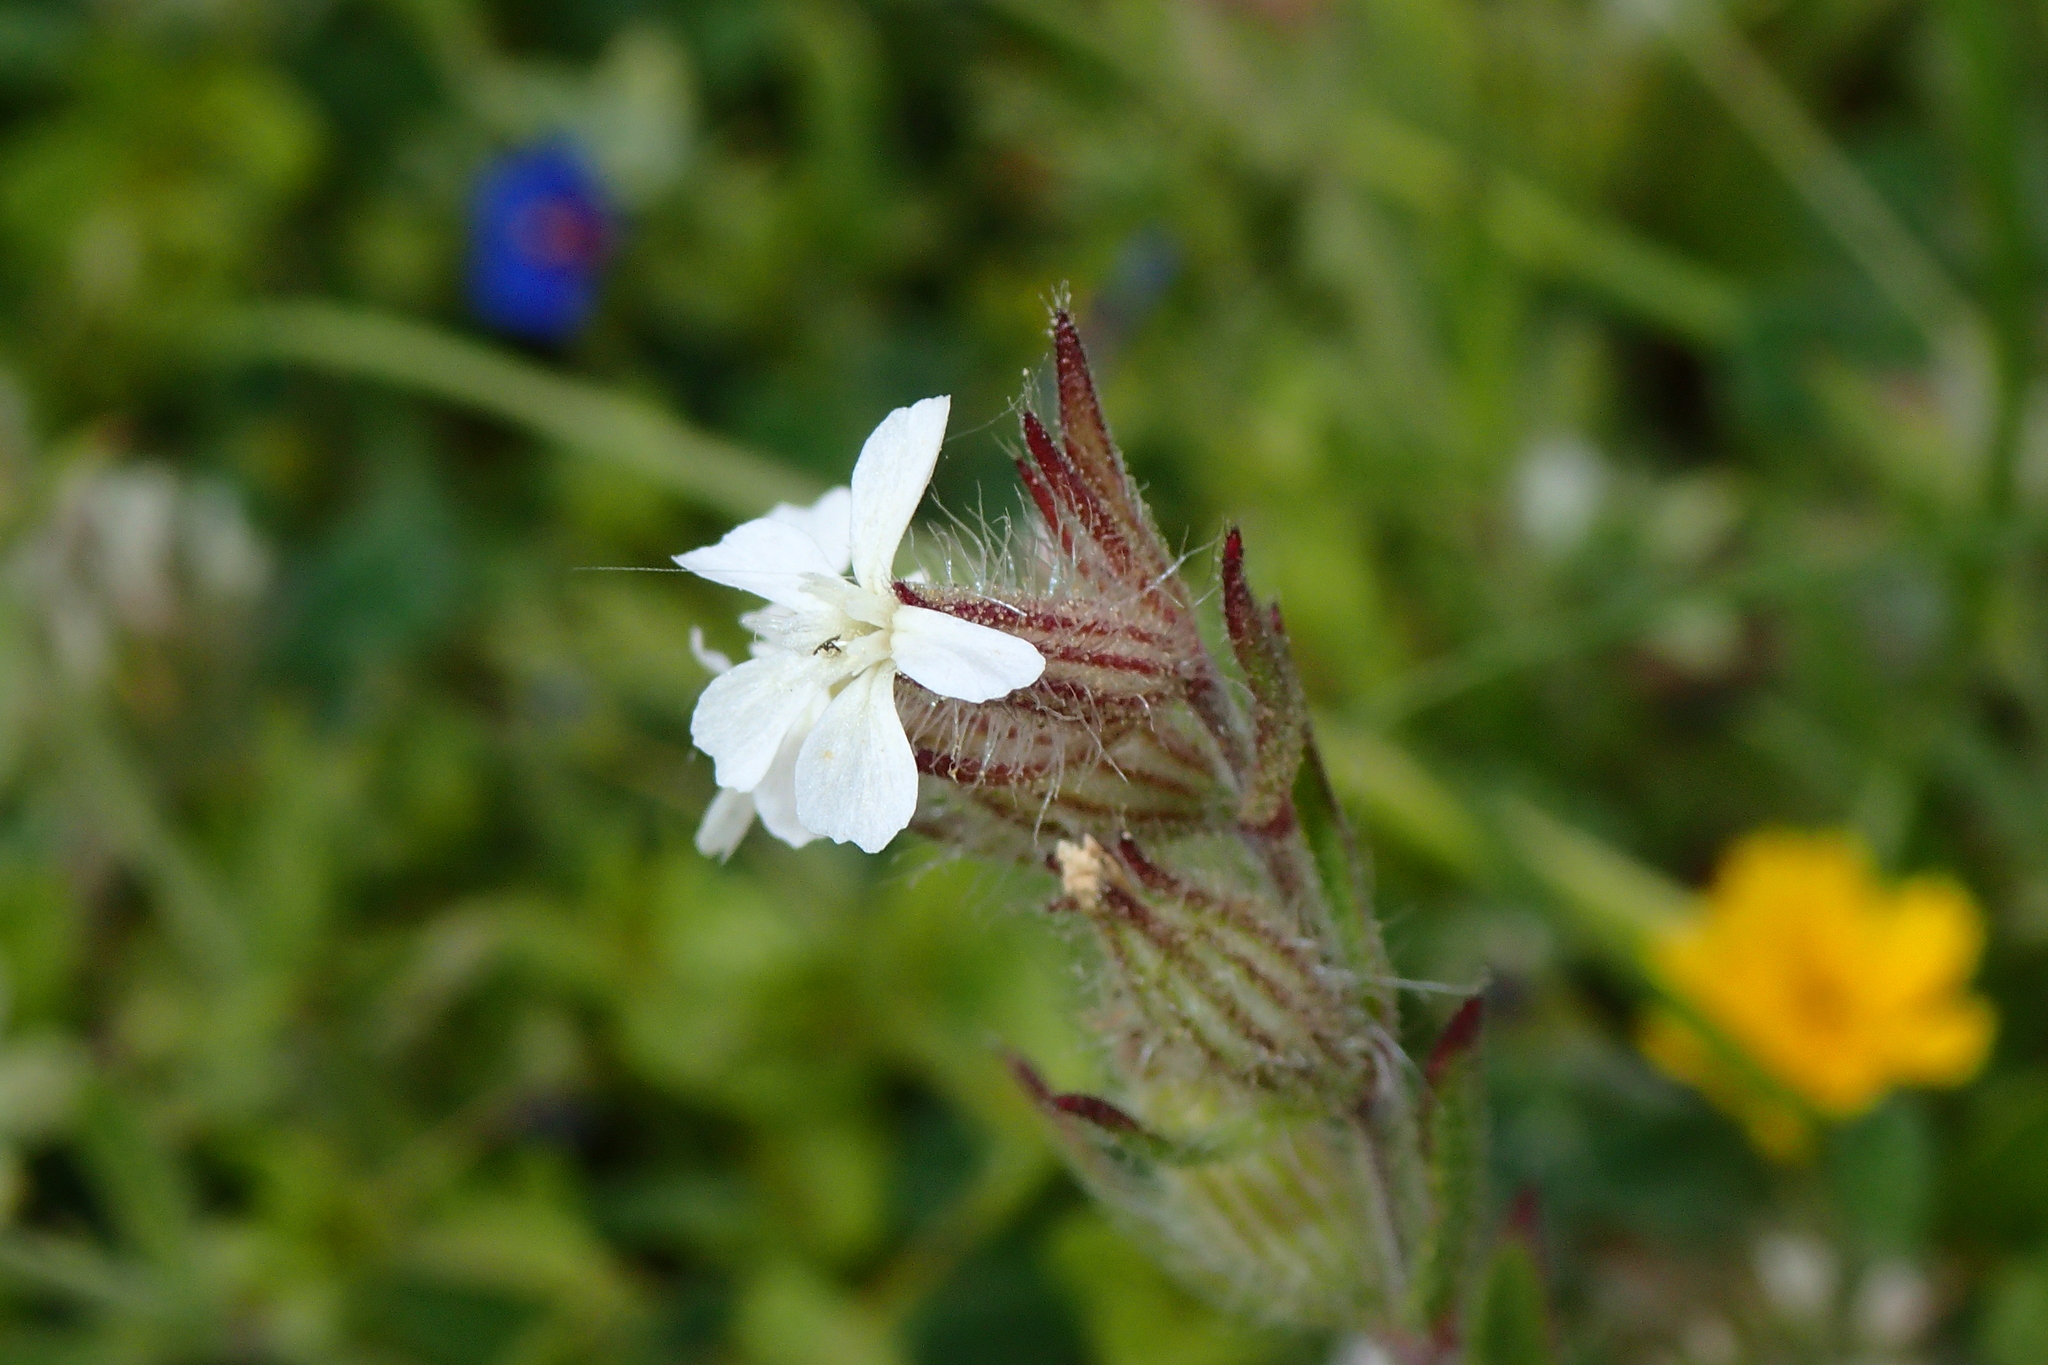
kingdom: Plantae
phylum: Tracheophyta
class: Magnoliopsida
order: Caryophyllales
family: Caryophyllaceae
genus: Silene
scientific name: Silene gallica
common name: Small-flowered catchfly
